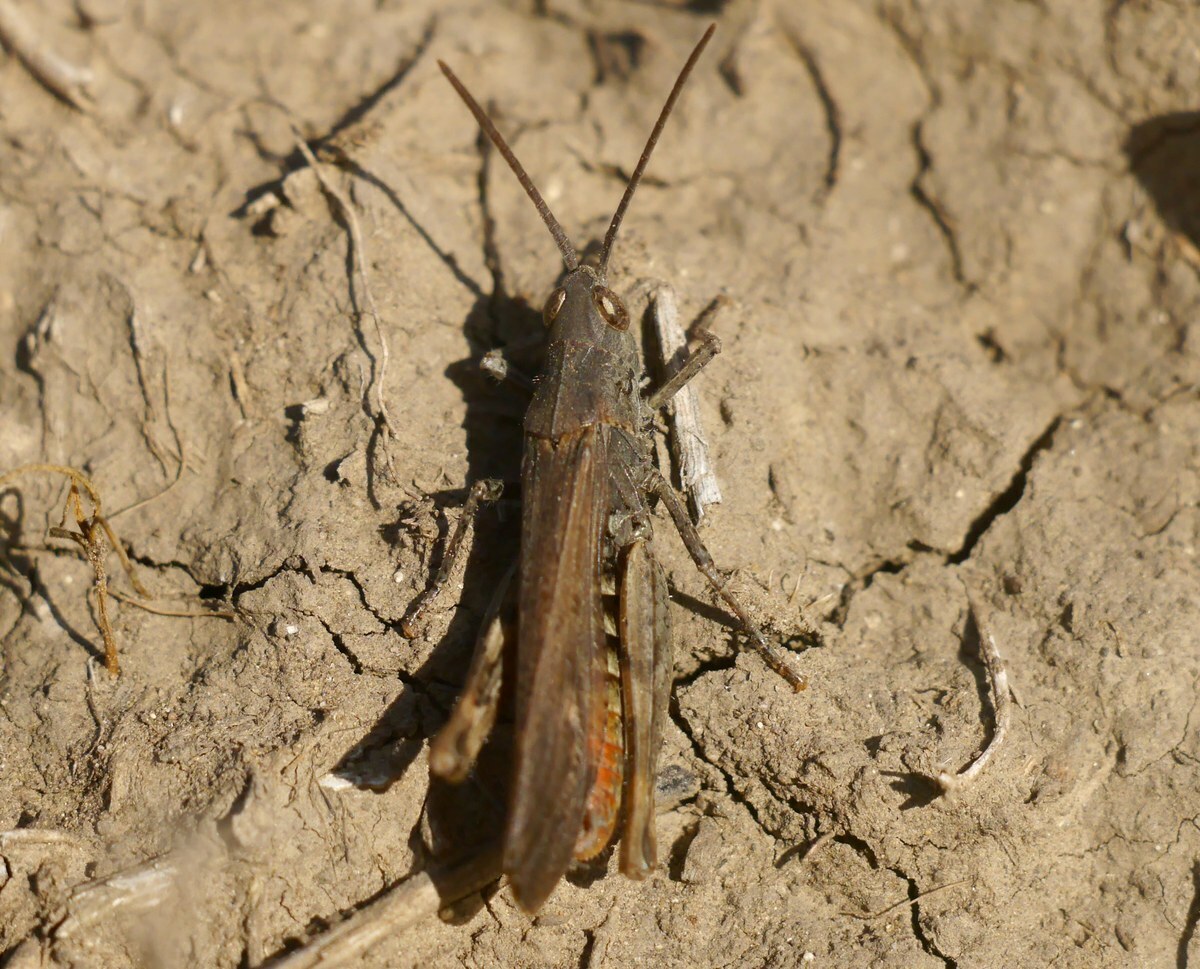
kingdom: Animalia
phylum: Arthropoda
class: Insecta
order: Orthoptera
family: Acrididae
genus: Chorthippus
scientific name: Chorthippus brunneus
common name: Field grasshopper
